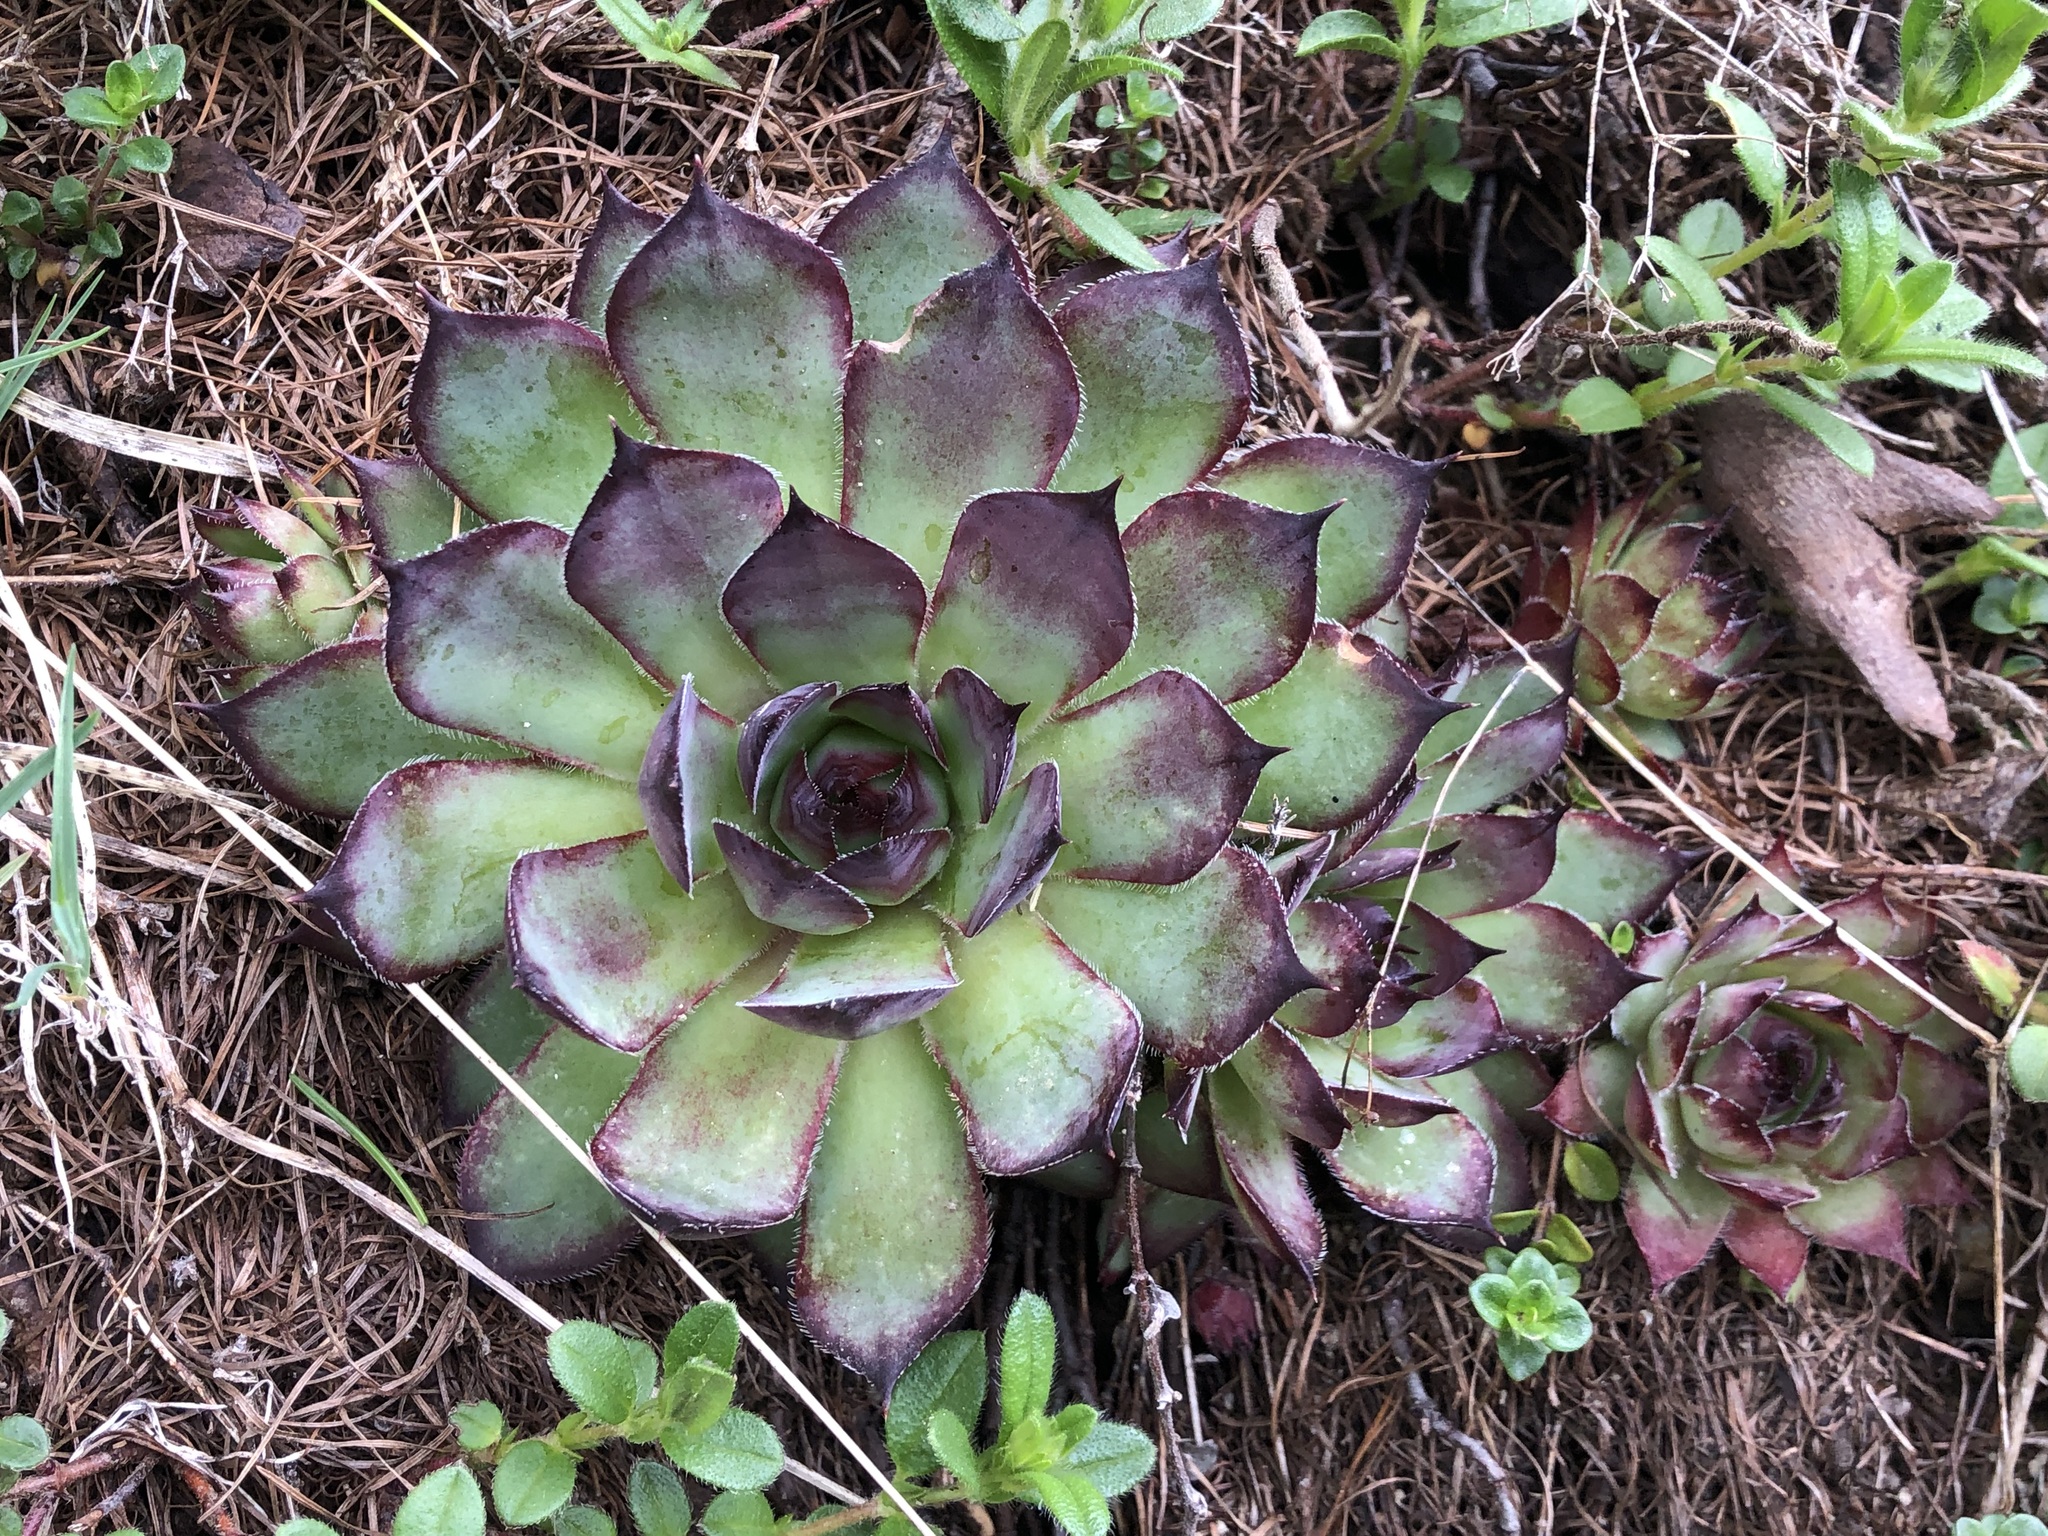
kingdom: Plantae
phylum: Tracheophyta
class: Magnoliopsida
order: Saxifragales
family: Crassulaceae
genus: Sempervivum
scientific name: Sempervivum tectorum
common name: House-leek
